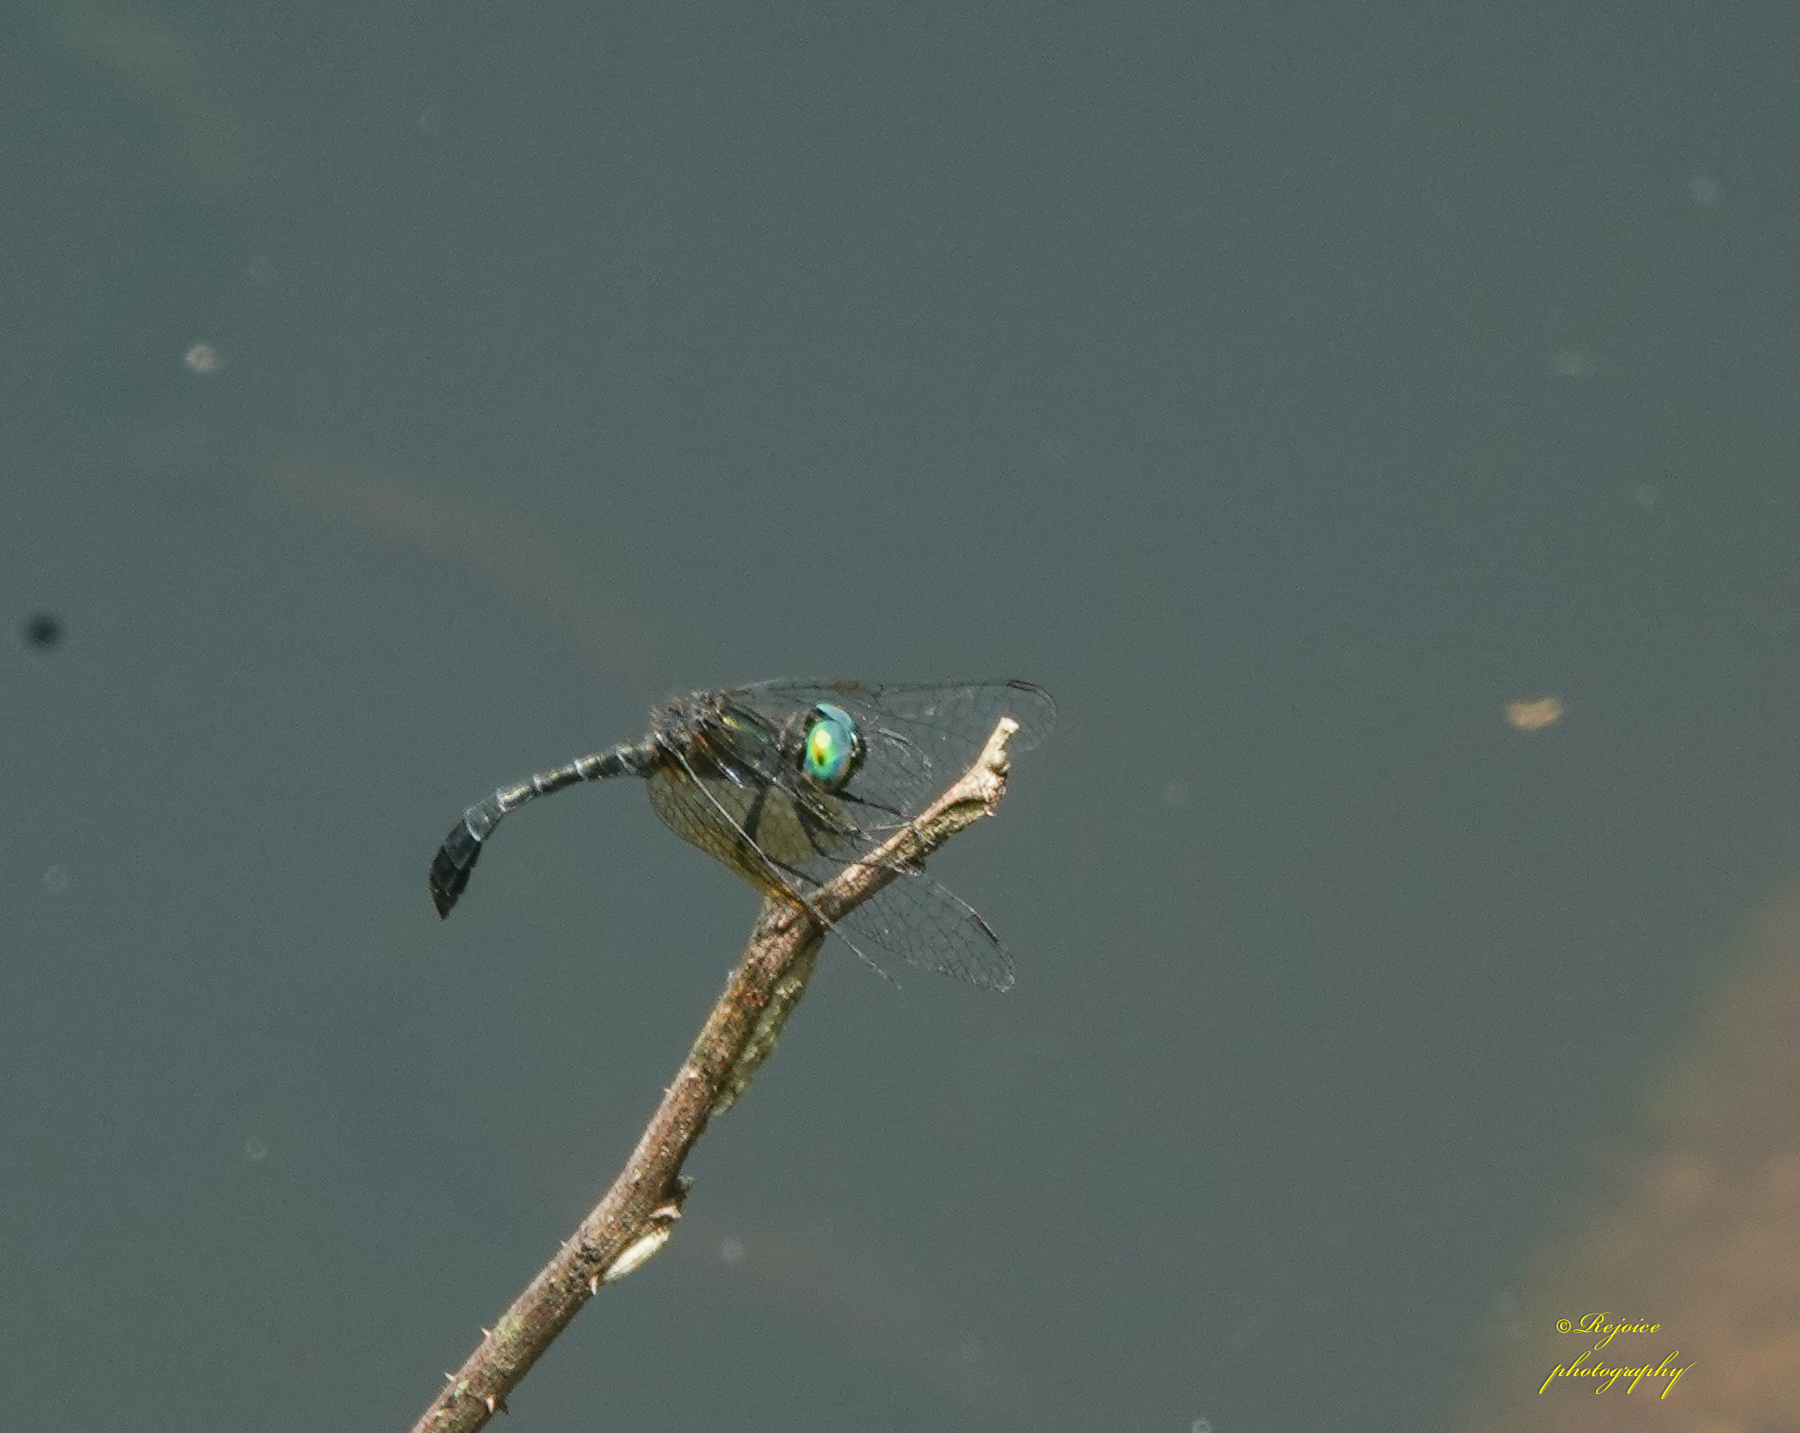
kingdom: Animalia
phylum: Arthropoda
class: Insecta
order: Odonata
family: Libellulidae
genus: Nannophyopsis
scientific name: Nannophyopsis clara
